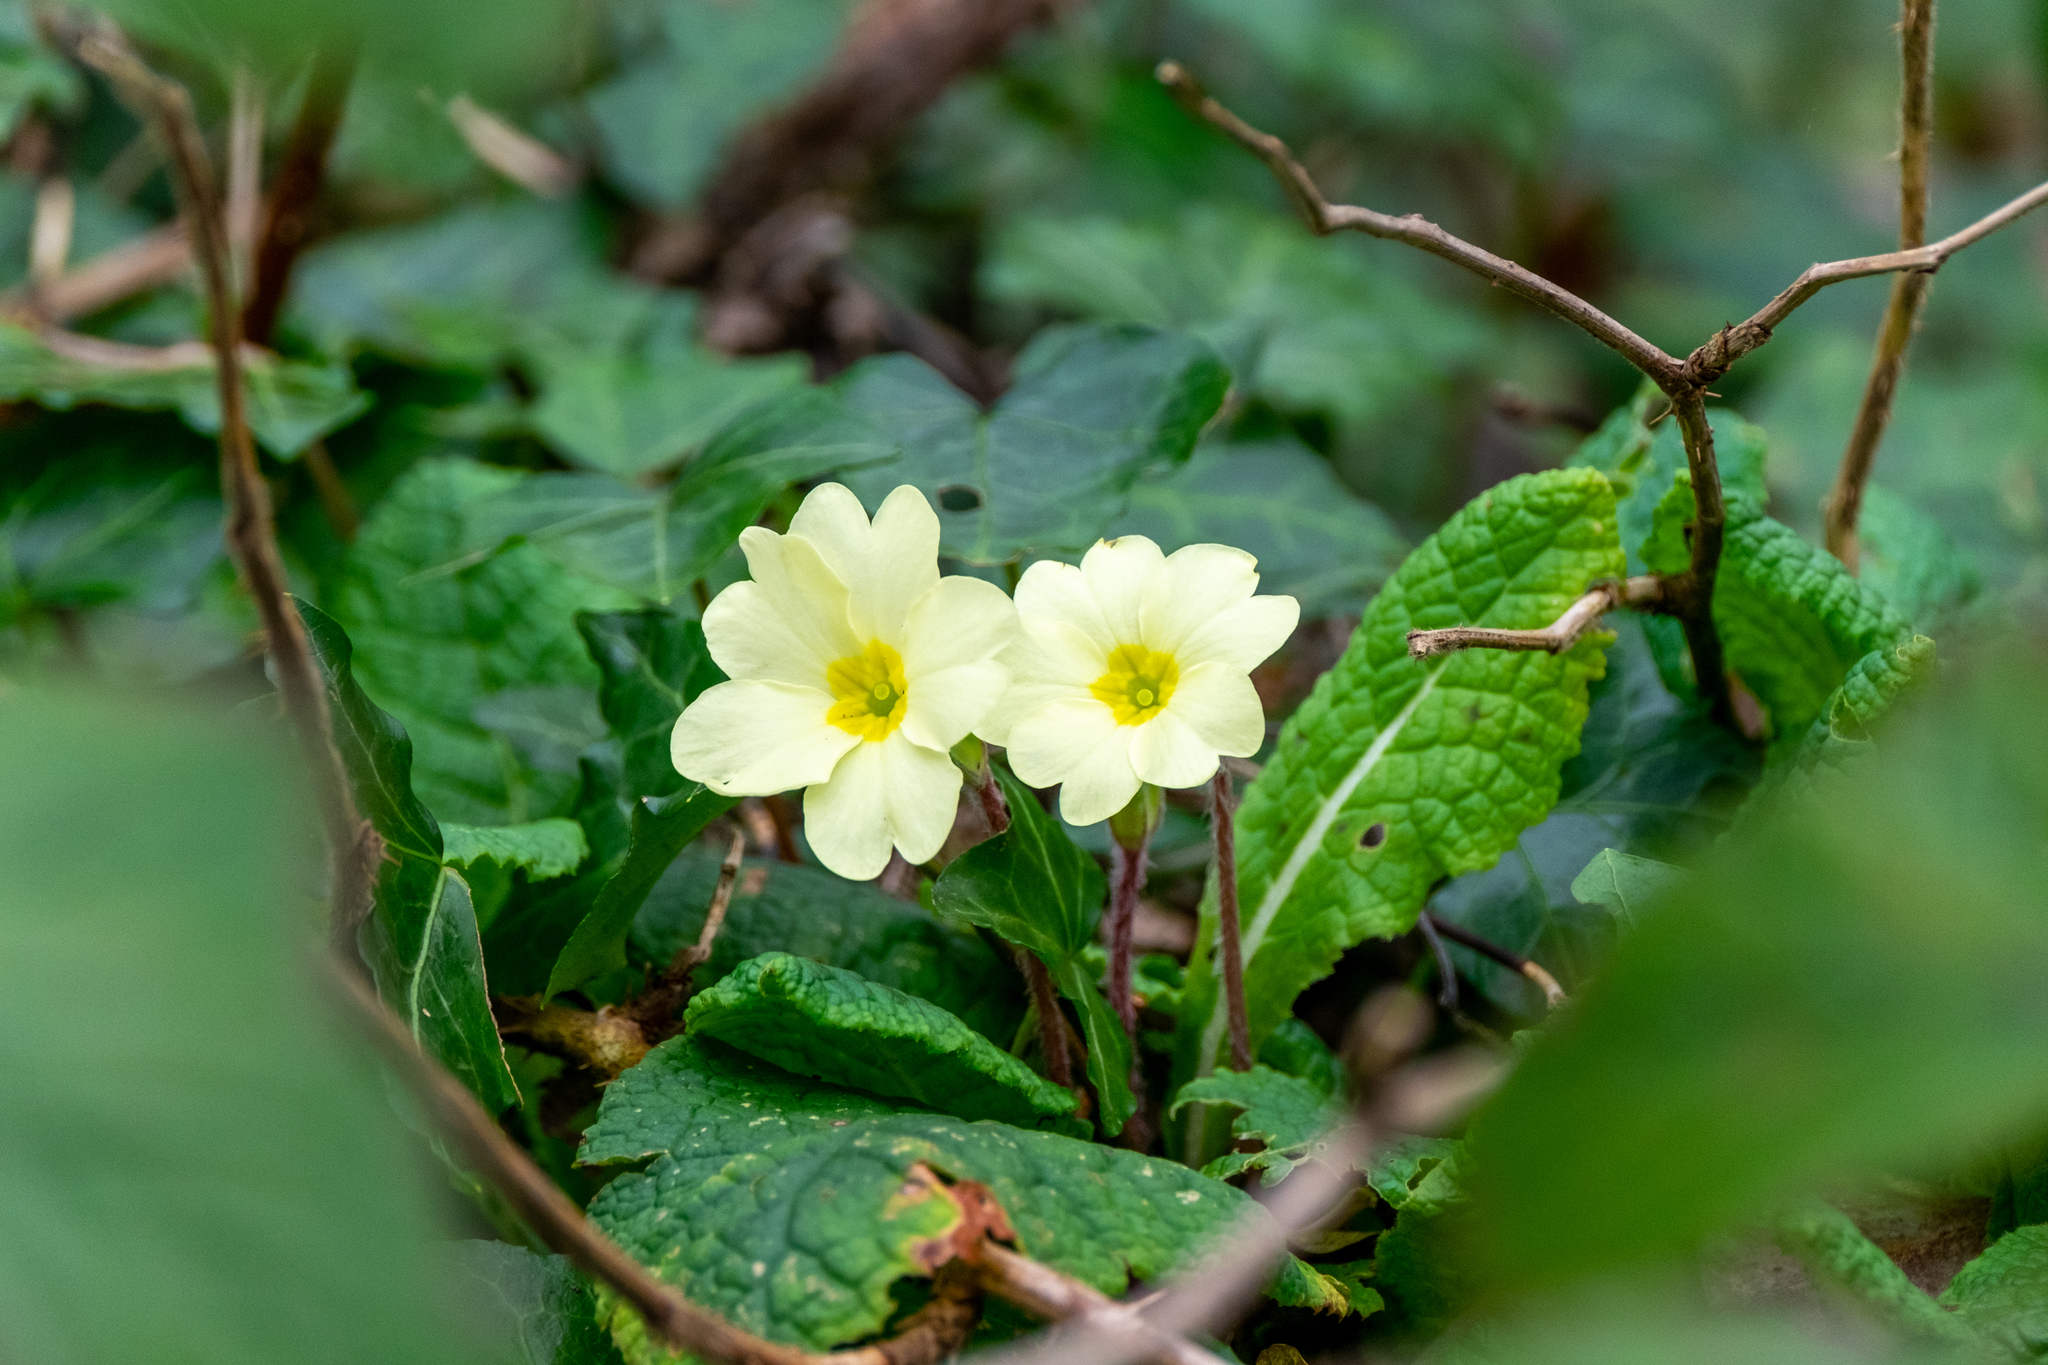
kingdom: Plantae
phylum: Tracheophyta
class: Magnoliopsida
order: Ericales
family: Primulaceae
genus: Primula
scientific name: Primula vulgaris
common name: Primrose
